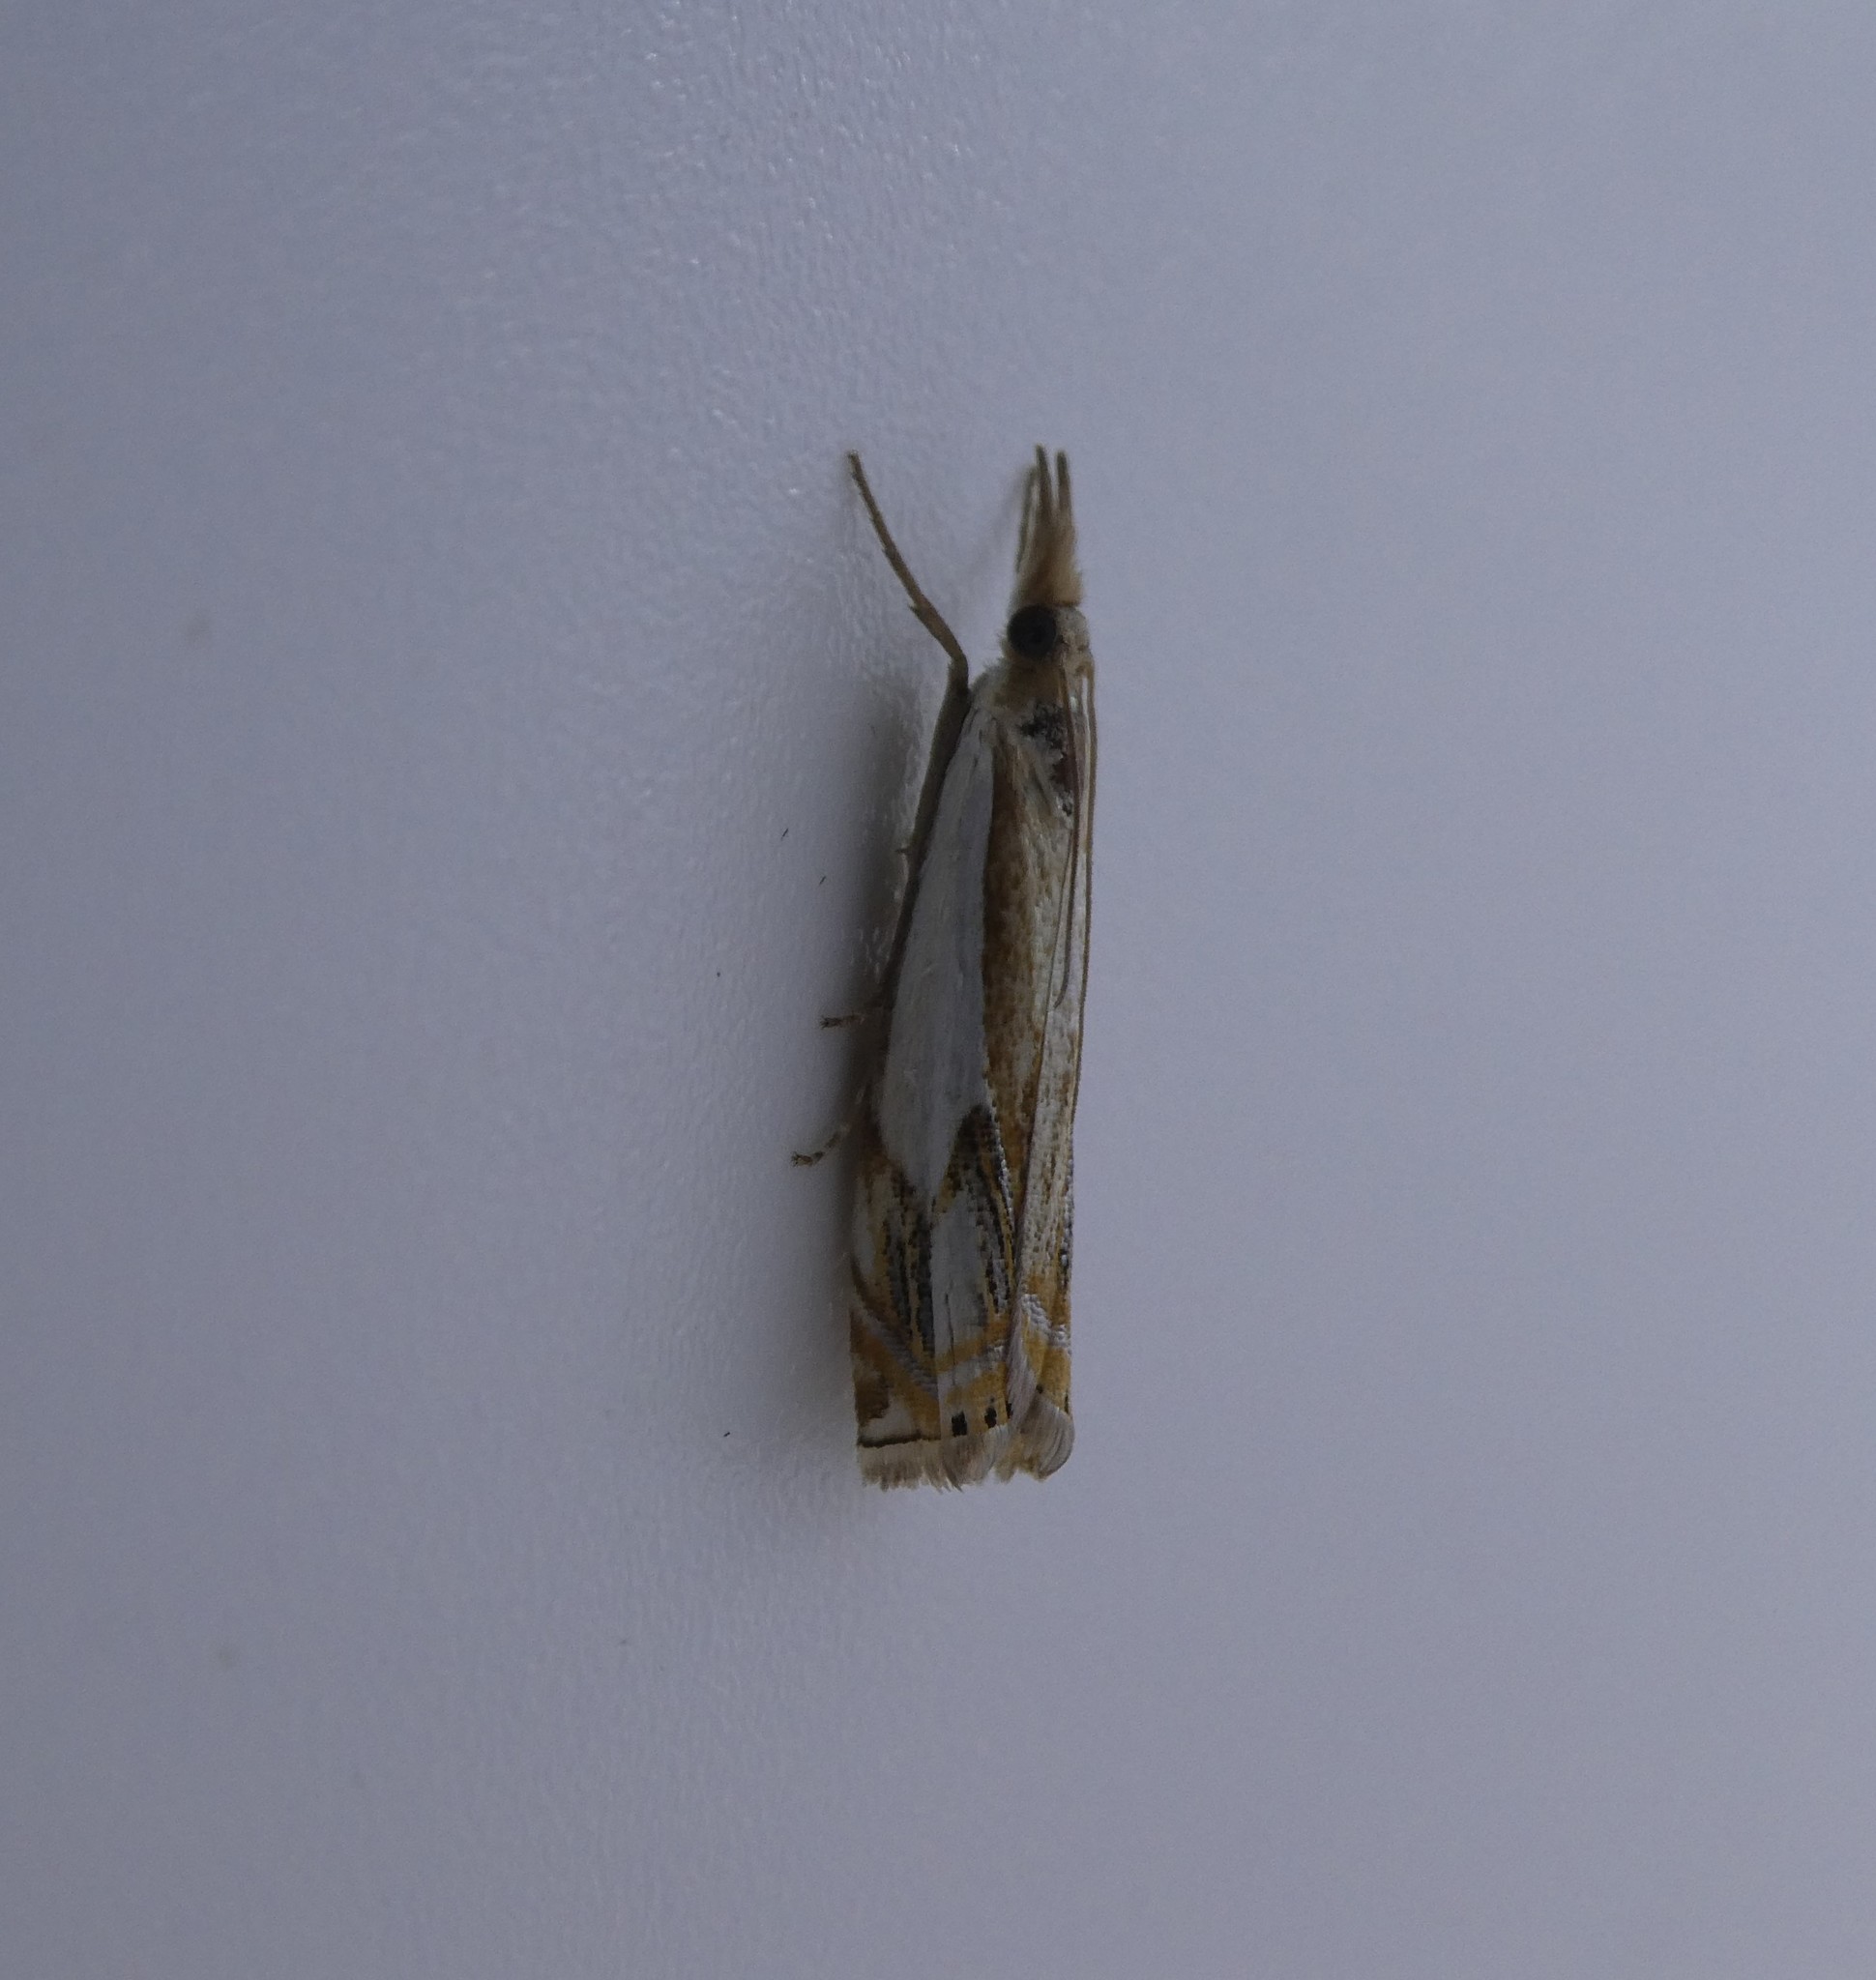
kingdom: Animalia
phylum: Arthropoda
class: Insecta
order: Lepidoptera
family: Crambidae
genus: Crambus
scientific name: Crambus agitatellus
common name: Double-banded grass-veneer
